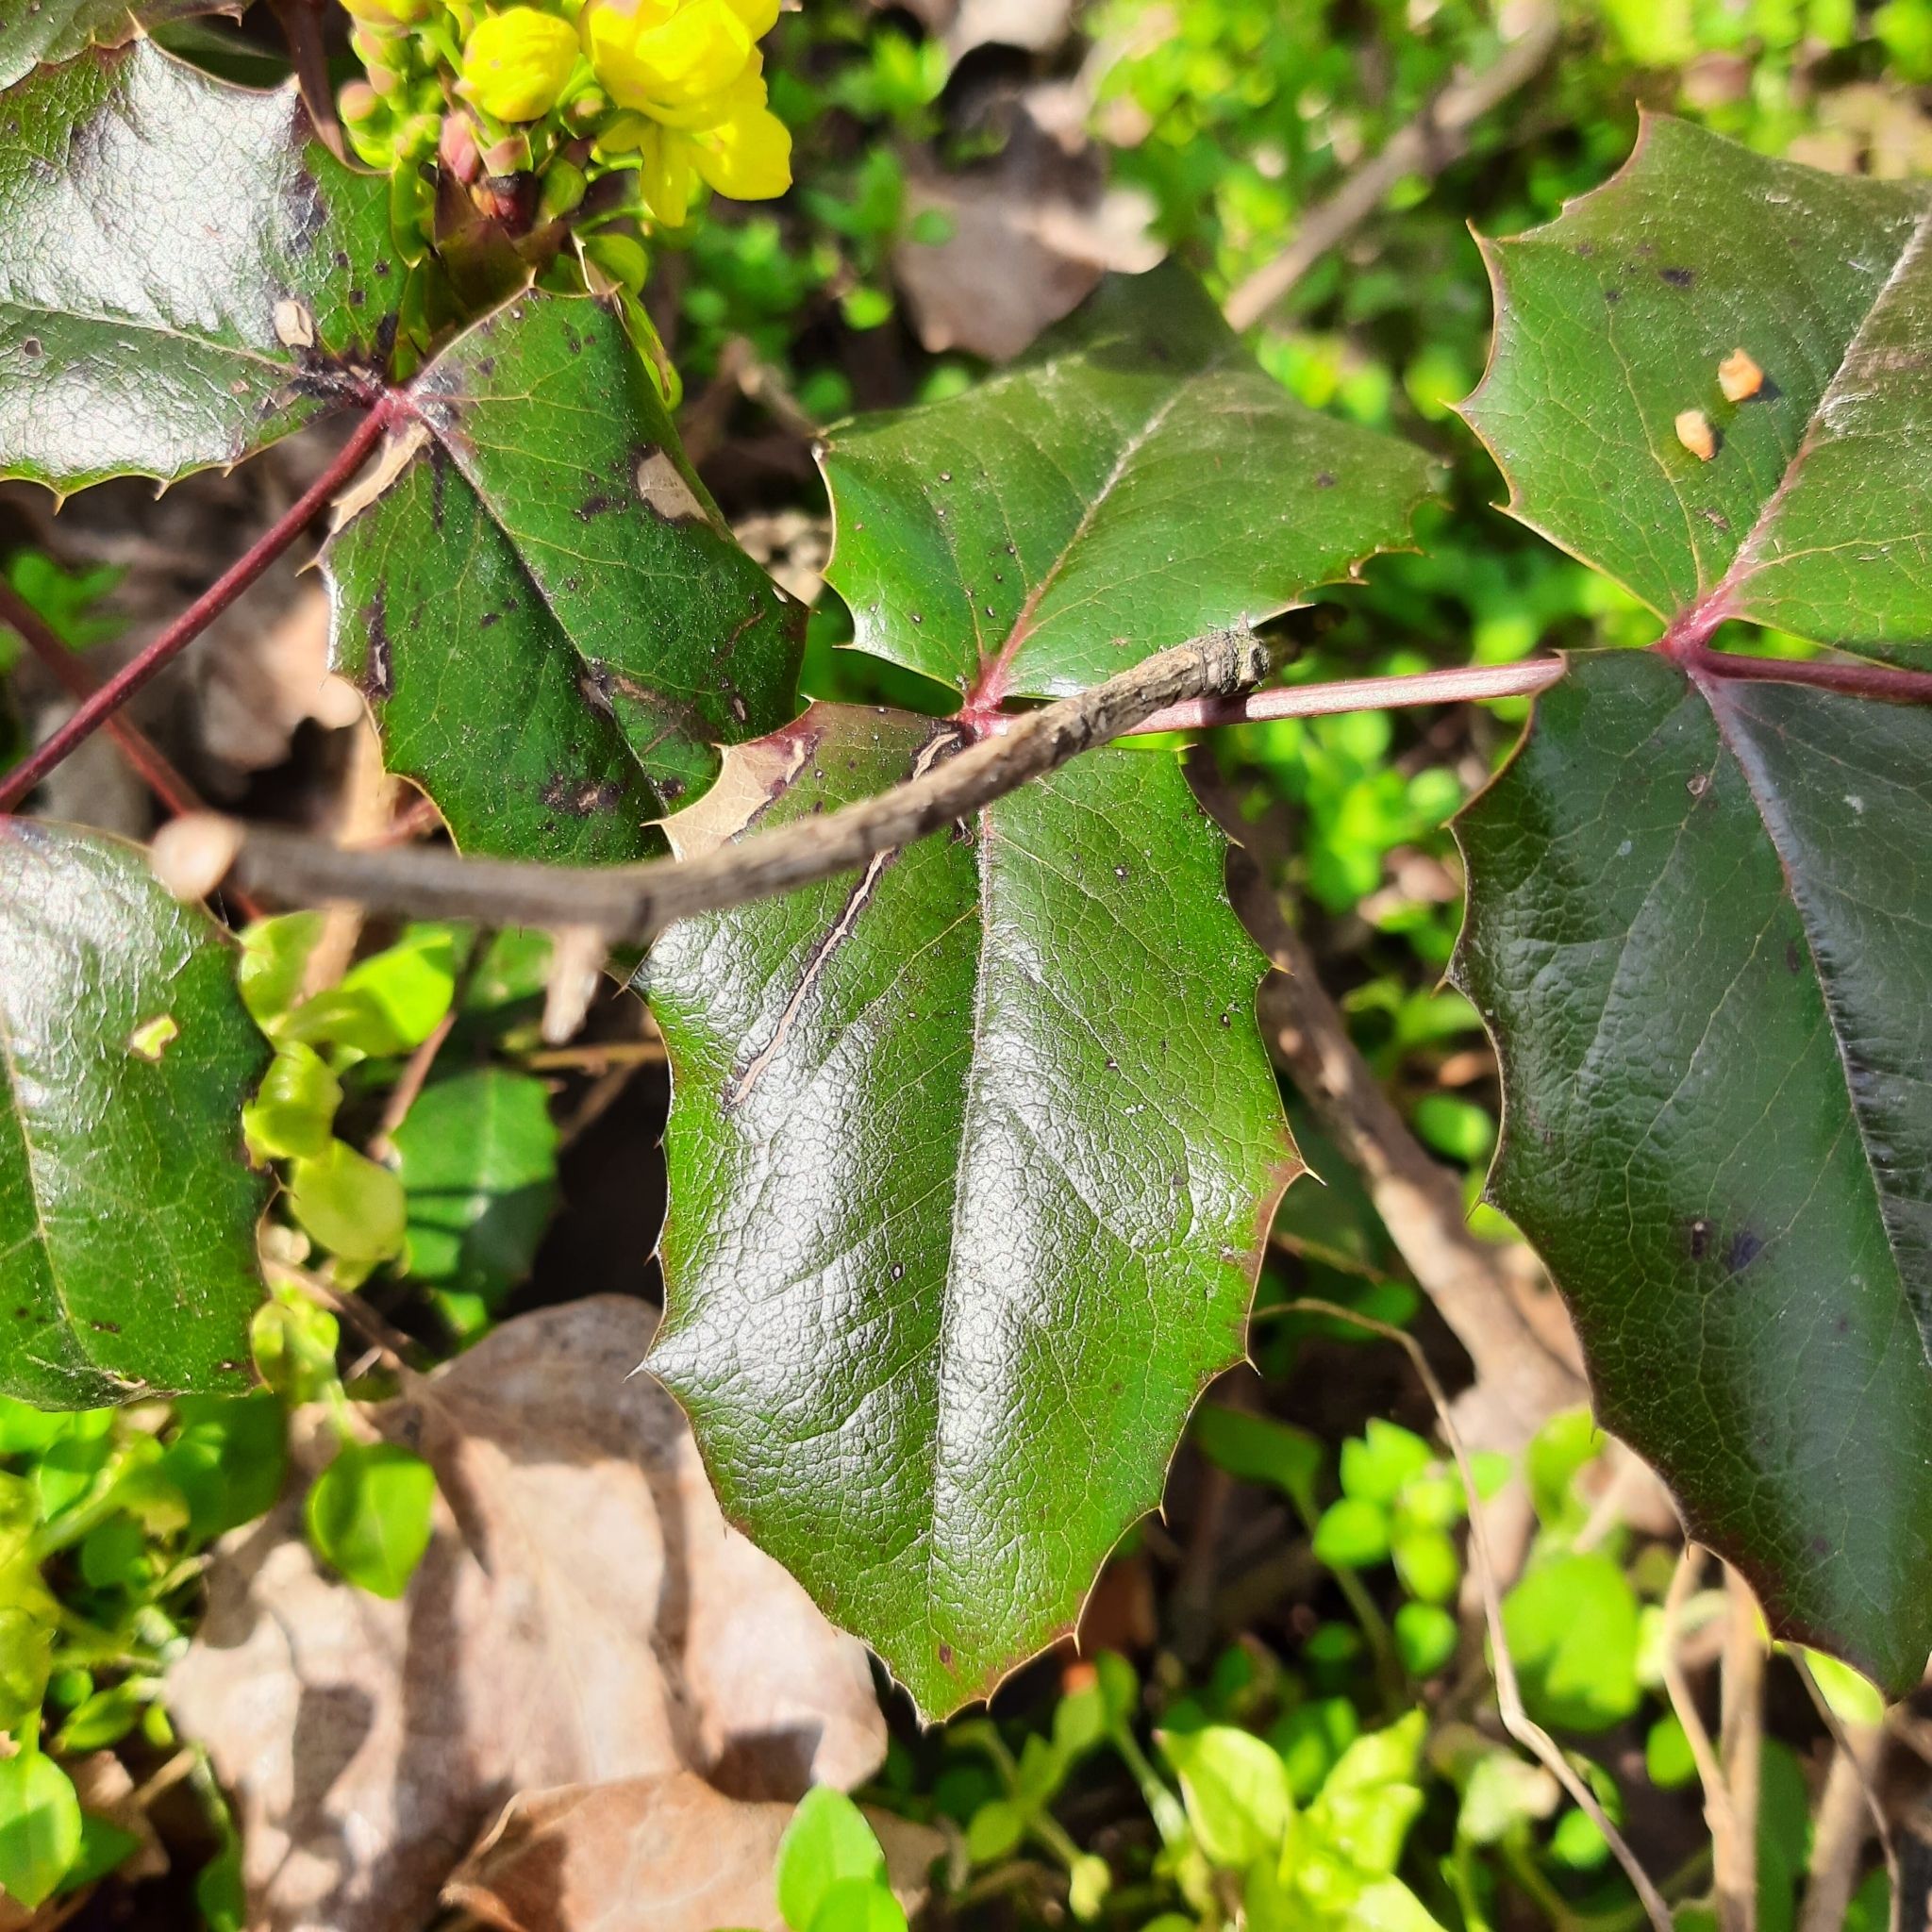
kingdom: Plantae
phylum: Tracheophyta
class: Magnoliopsida
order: Ranunculales
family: Berberidaceae
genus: Mahonia
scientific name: Mahonia aquifolium
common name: Oregon-grape
